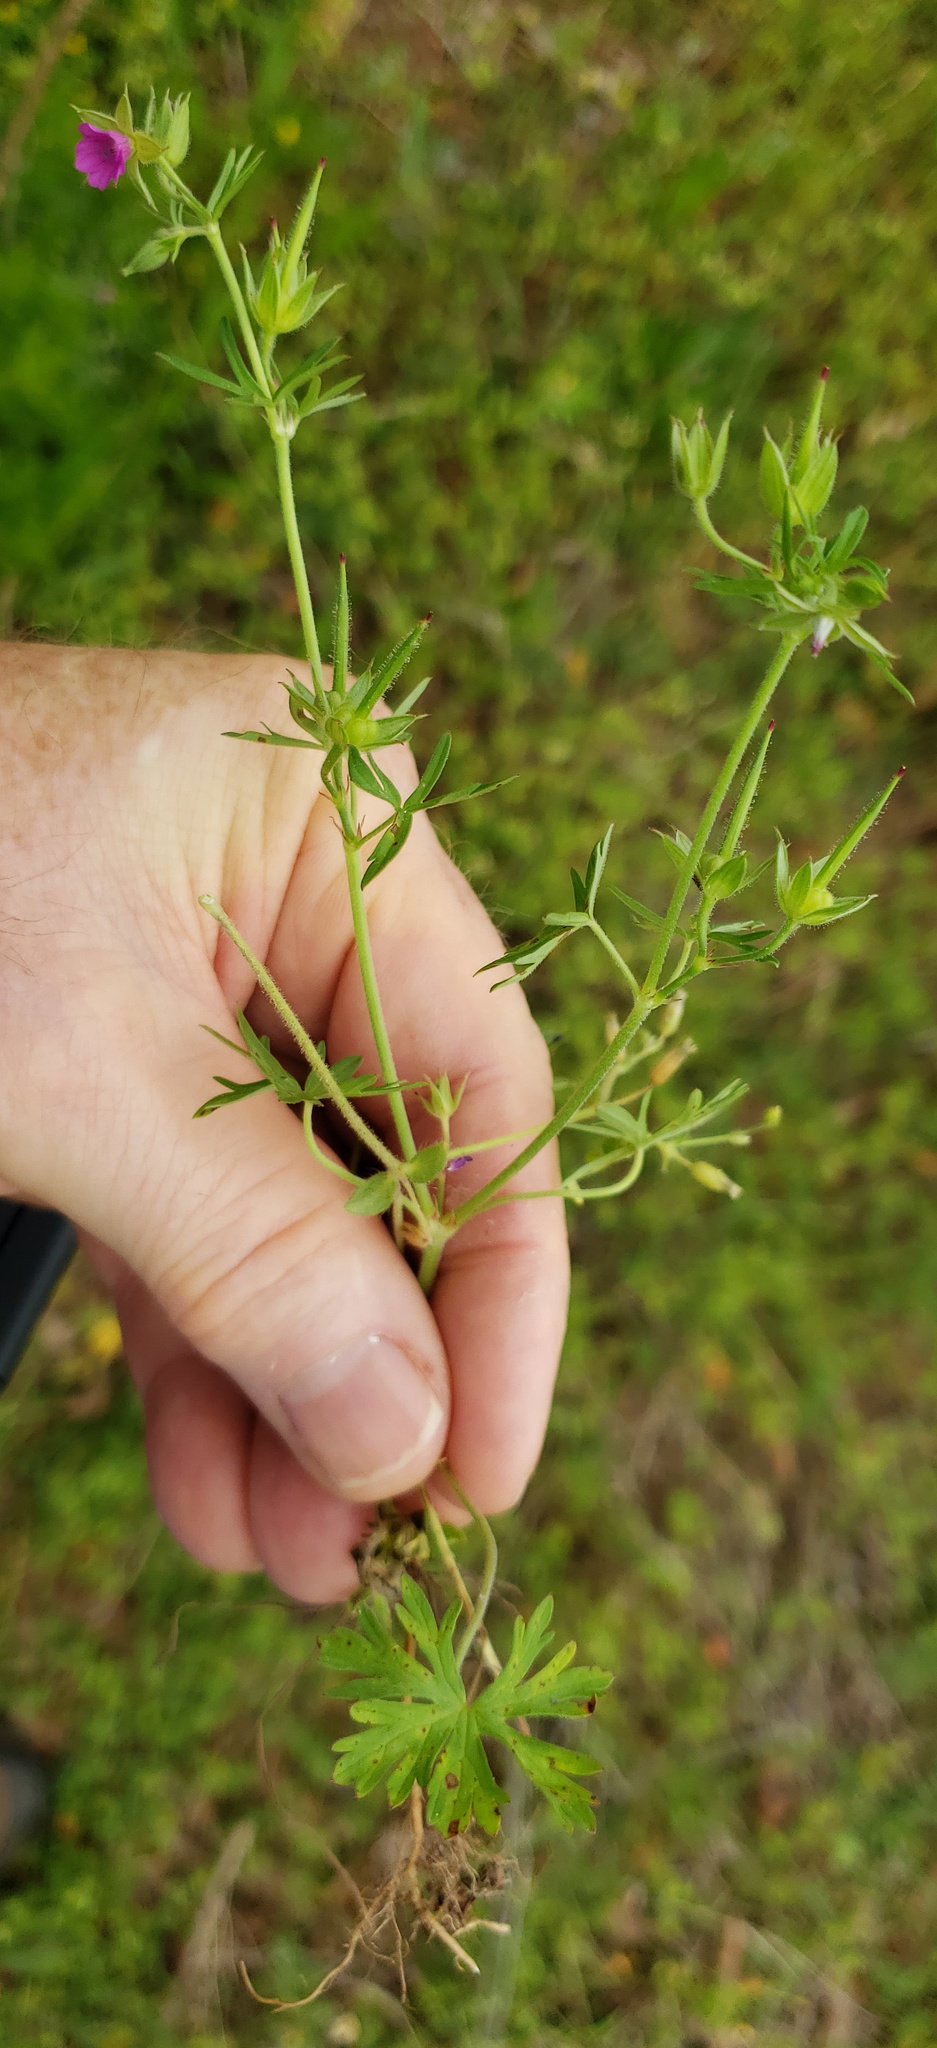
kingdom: Plantae
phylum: Tracheophyta
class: Magnoliopsida
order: Geraniales
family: Geraniaceae
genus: Geranium
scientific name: Geranium dissectum
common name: Cut-leaved crane's-bill
